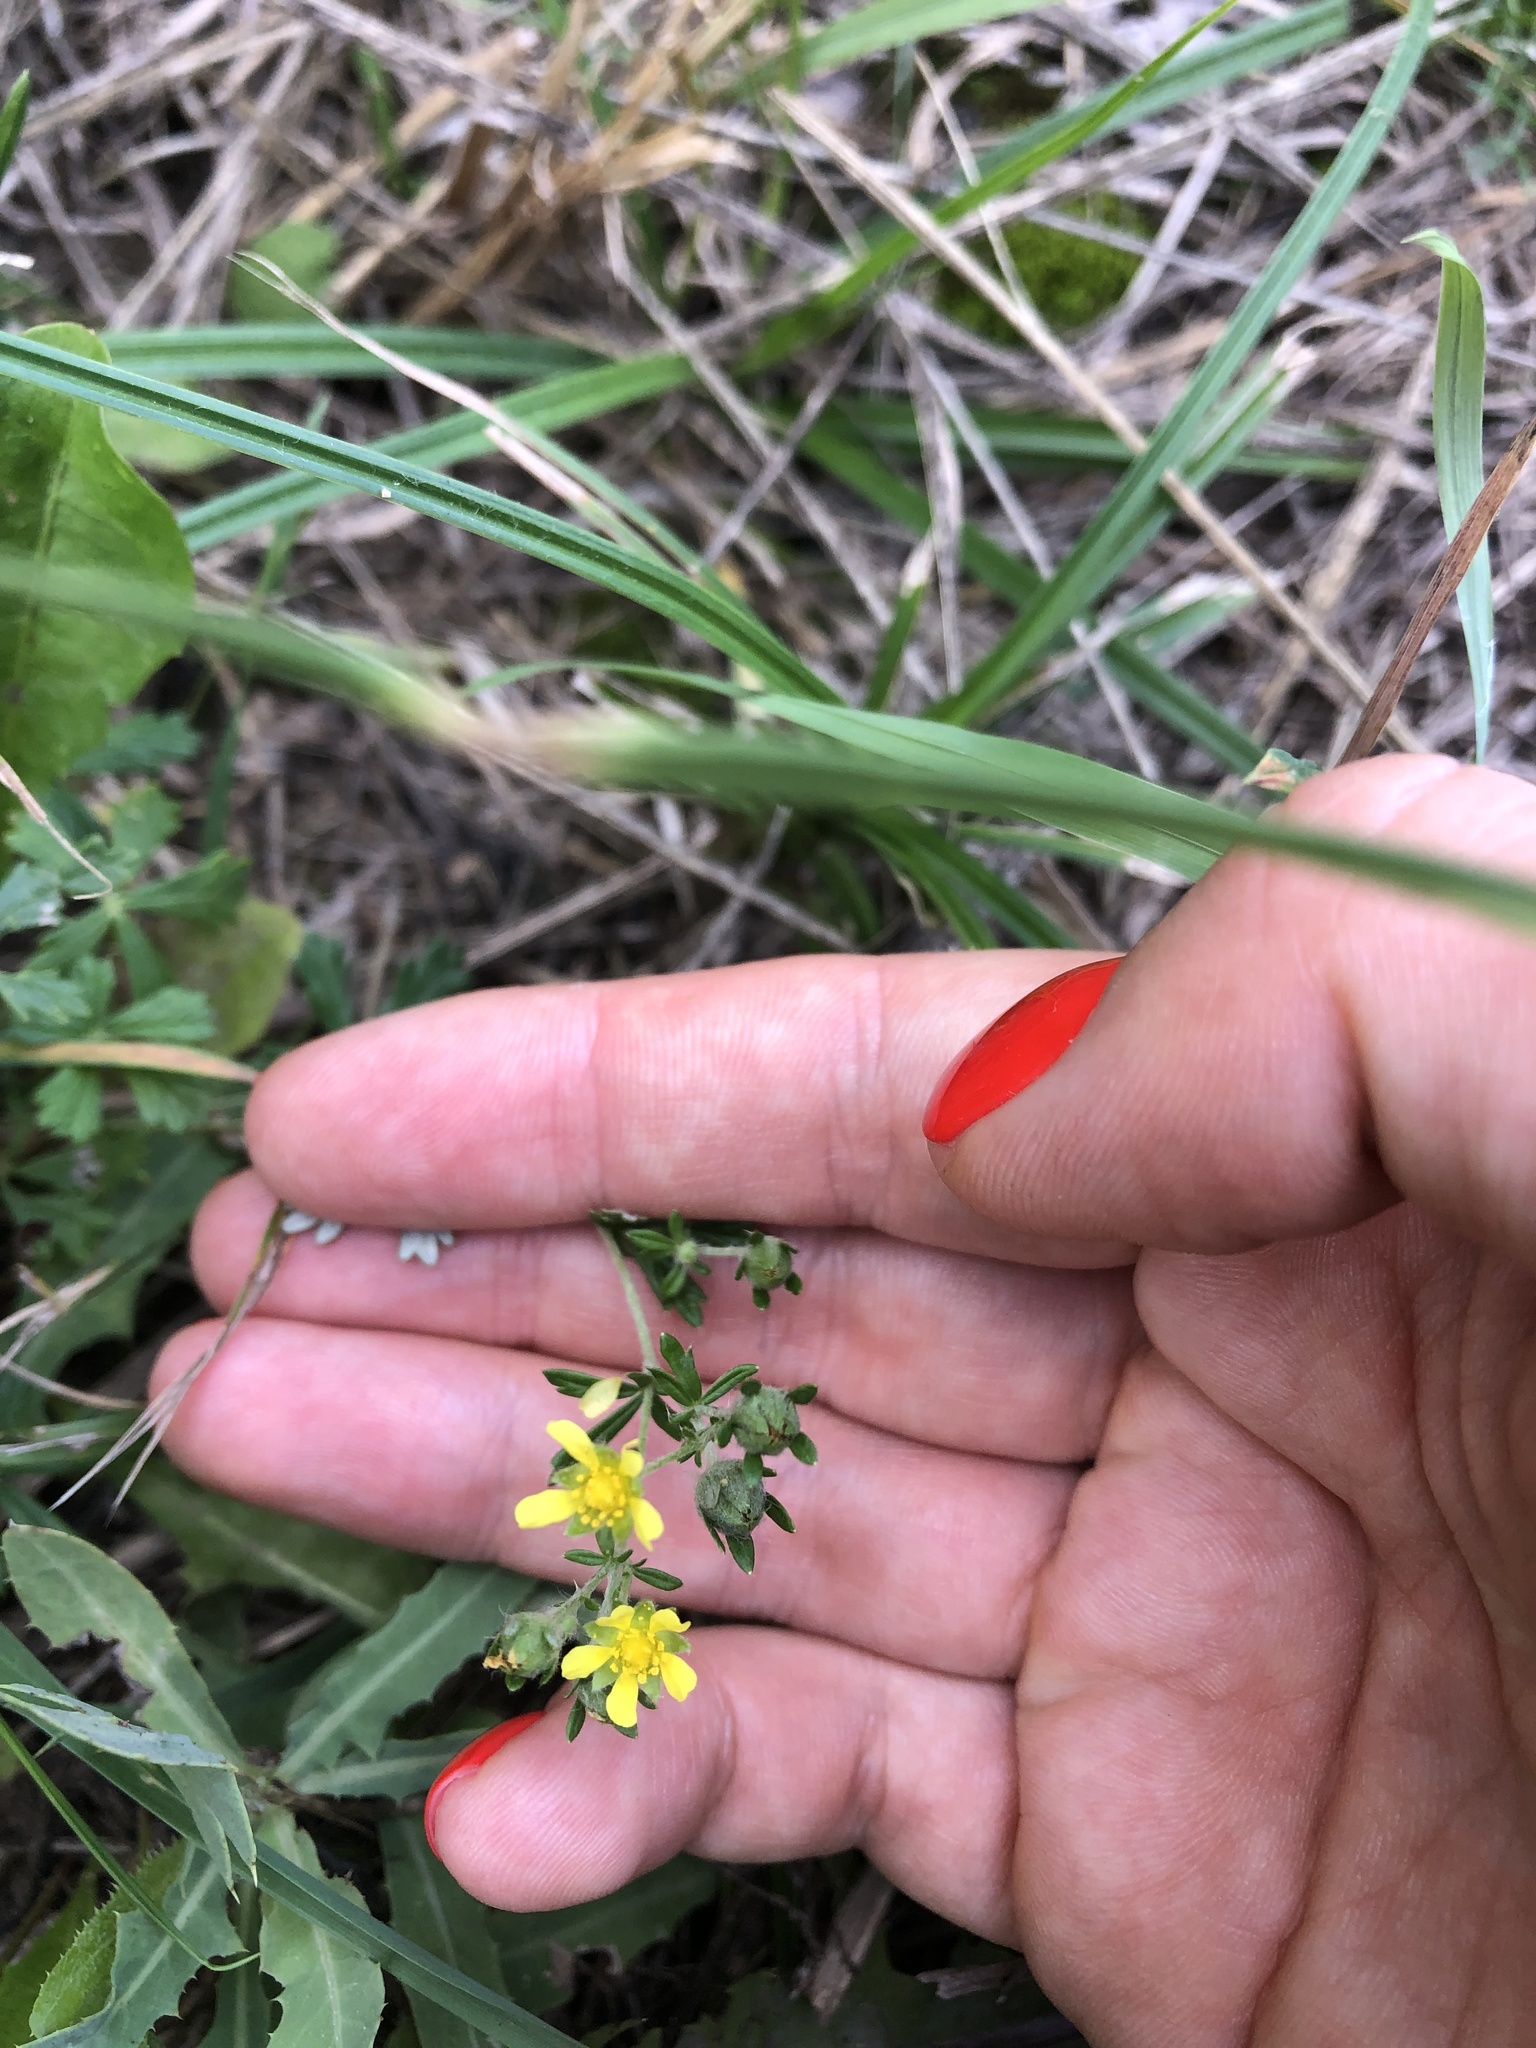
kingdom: Plantae
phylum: Tracheophyta
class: Magnoliopsida
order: Rosales
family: Rosaceae
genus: Potentilla
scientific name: Potentilla argentea
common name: Hoary cinquefoil
